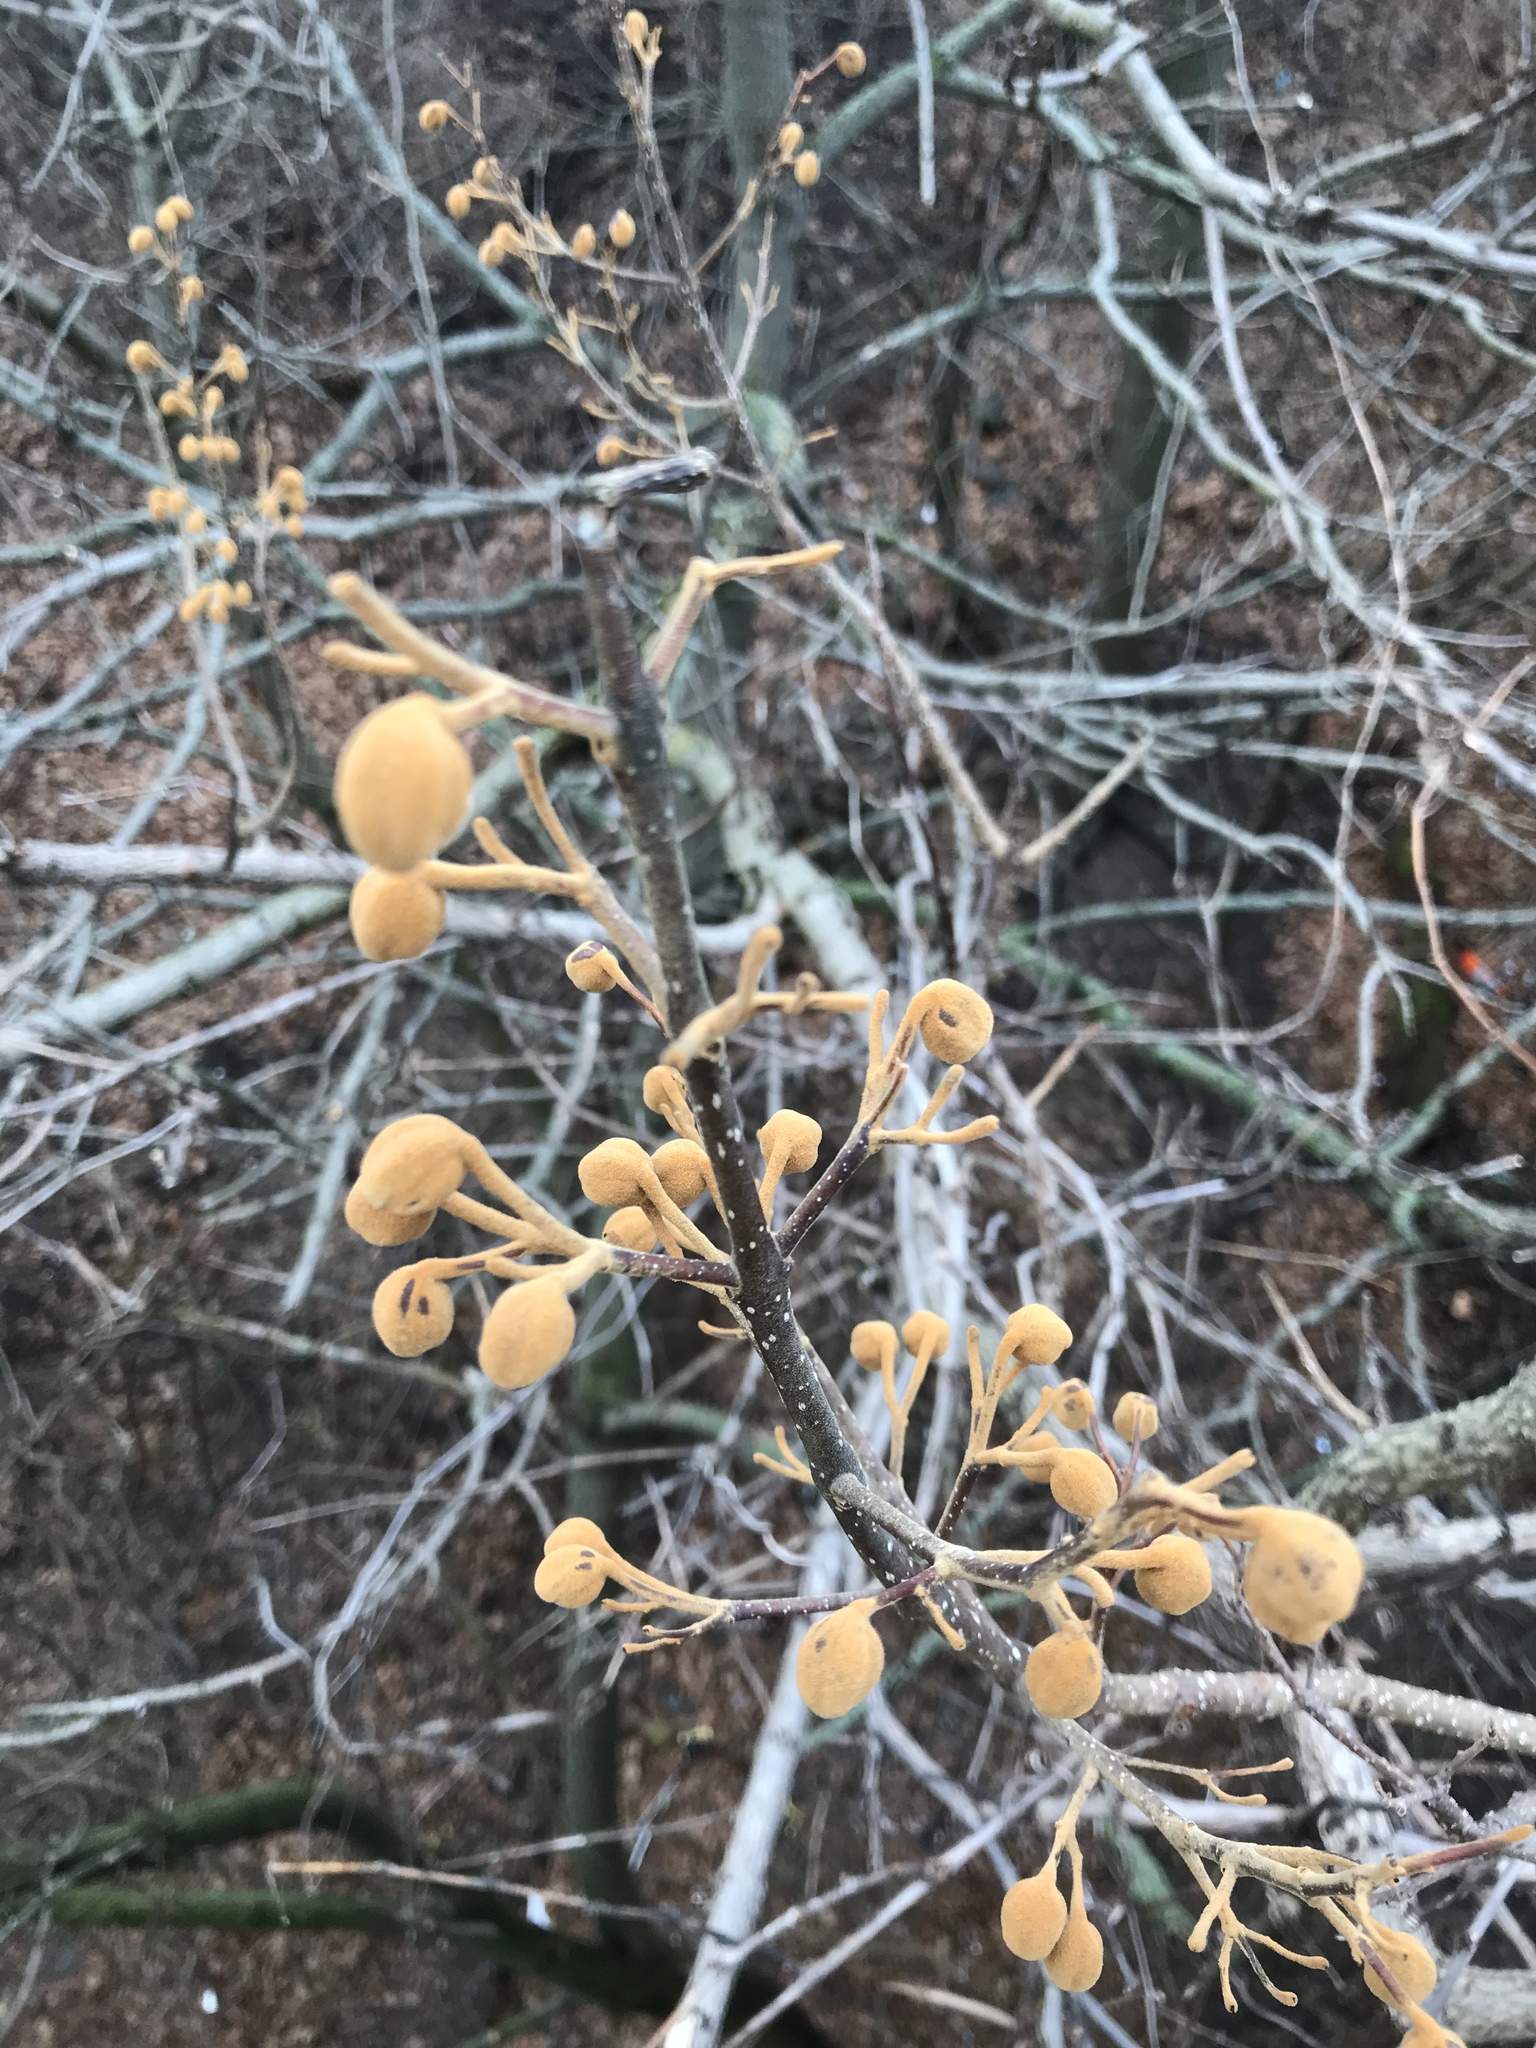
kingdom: Plantae
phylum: Tracheophyta
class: Magnoliopsida
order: Lamiales
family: Paulowniaceae
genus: Paulownia
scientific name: Paulownia tomentosa
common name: Foxglove-tree
